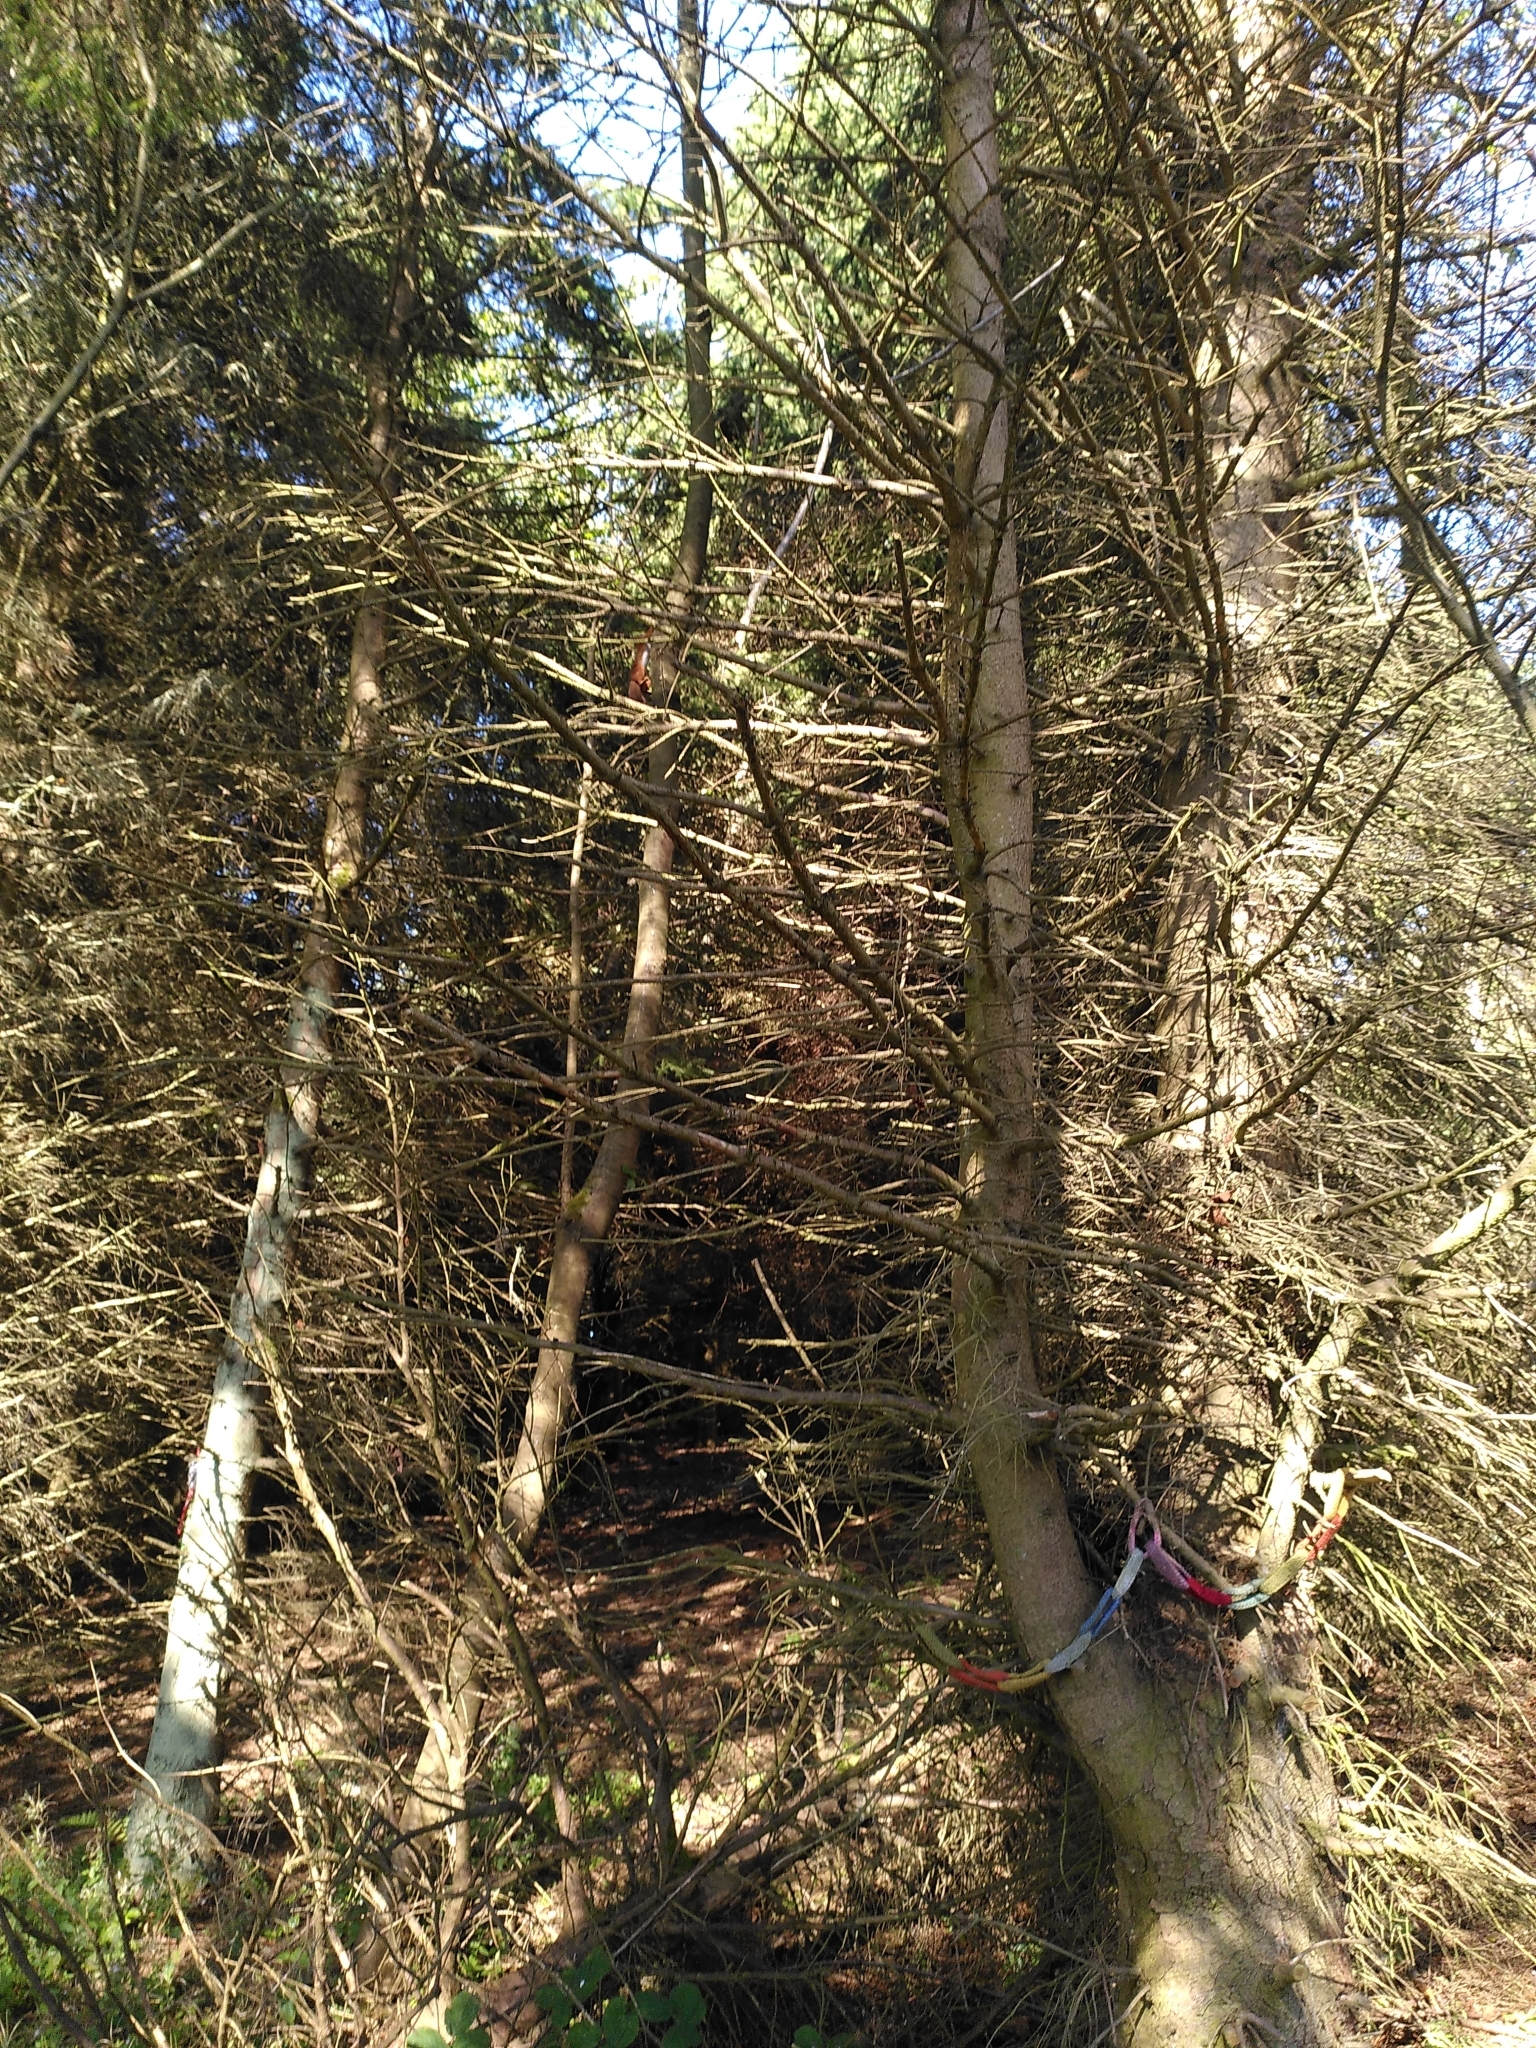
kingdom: Animalia
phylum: Chordata
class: Mammalia
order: Rodentia
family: Sciuridae
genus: Sciurus
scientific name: Sciurus vulgaris
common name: Eurasian red squirrel
